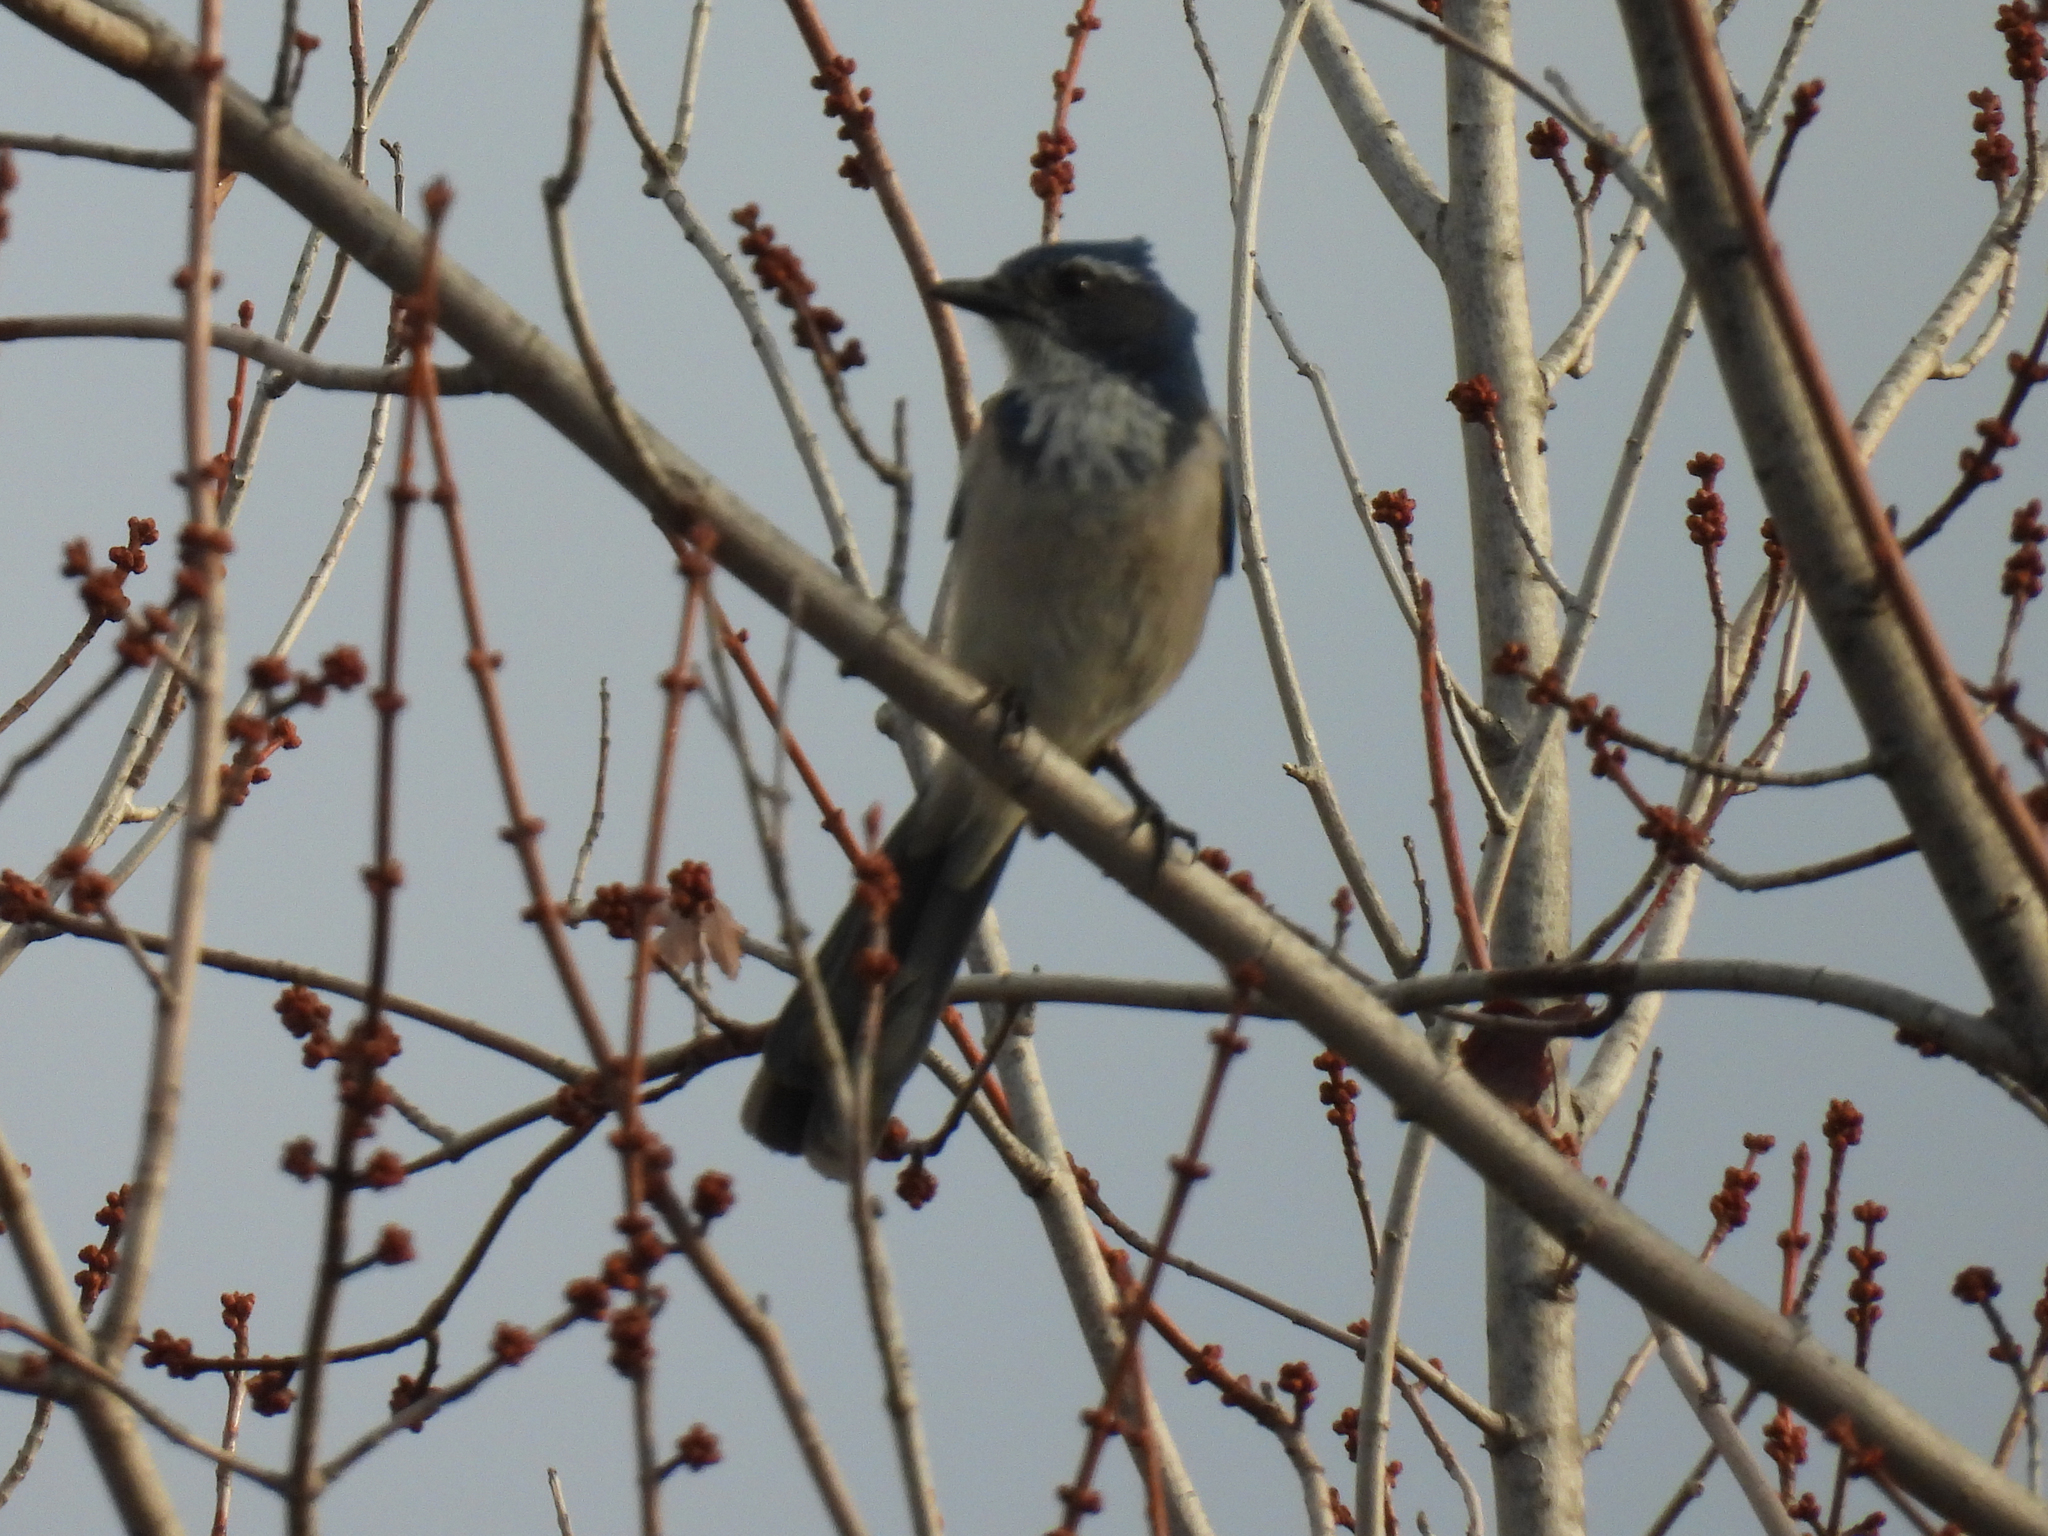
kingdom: Animalia
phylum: Chordata
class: Aves
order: Passeriformes
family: Corvidae
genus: Aphelocoma
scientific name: Aphelocoma californica
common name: California scrub-jay
